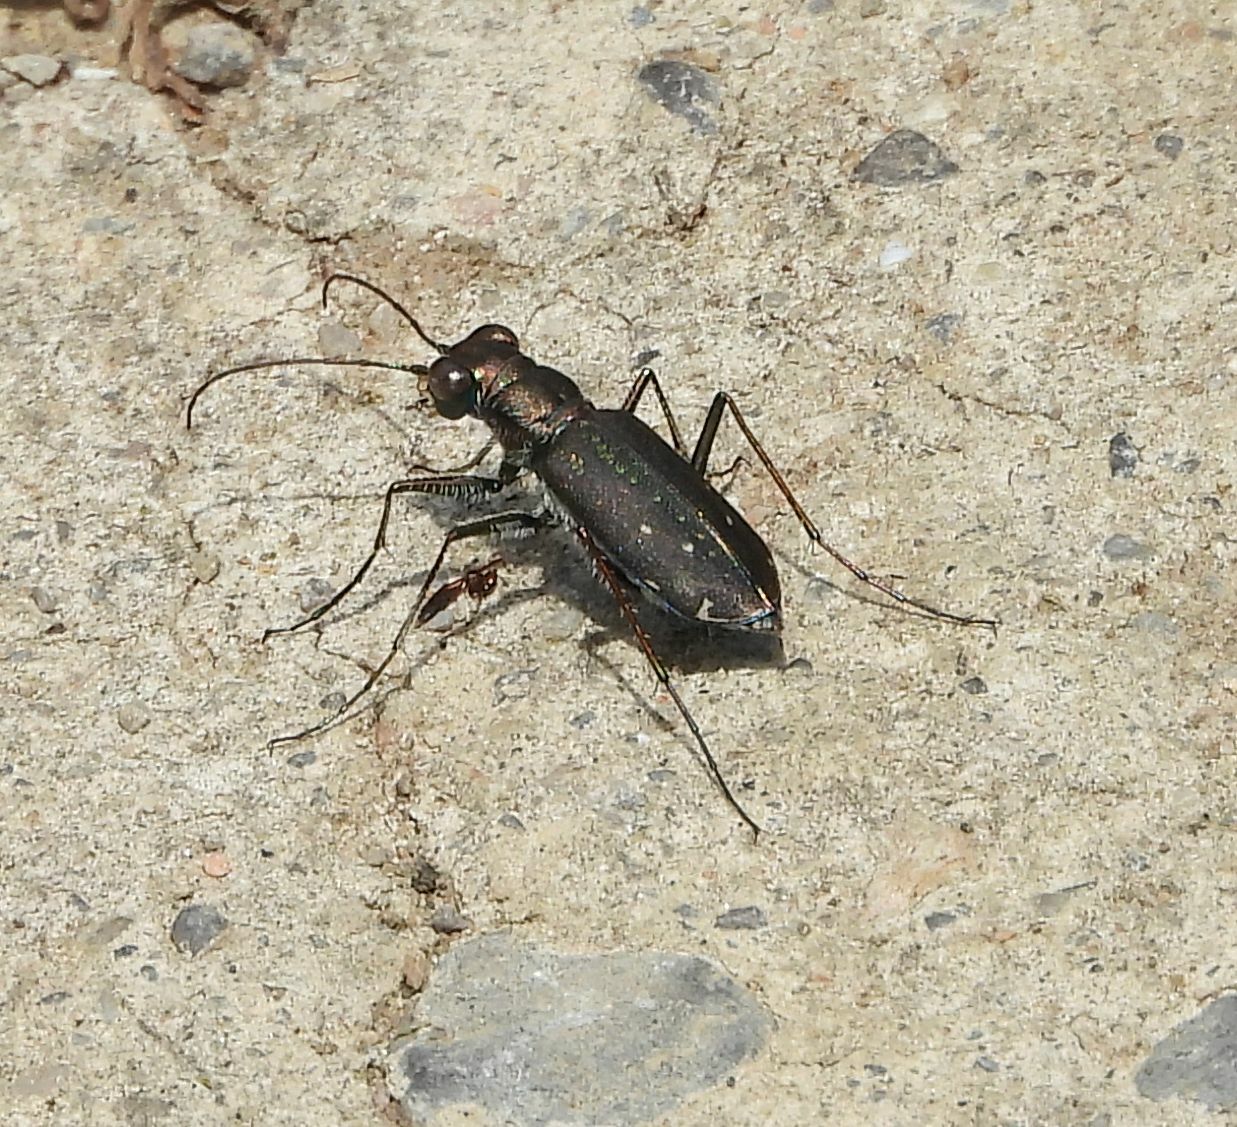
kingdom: Animalia
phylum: Arthropoda
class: Insecta
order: Coleoptera
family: Carabidae
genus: Cicindela
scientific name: Cicindela punctulata
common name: Punctured tiger beetle
